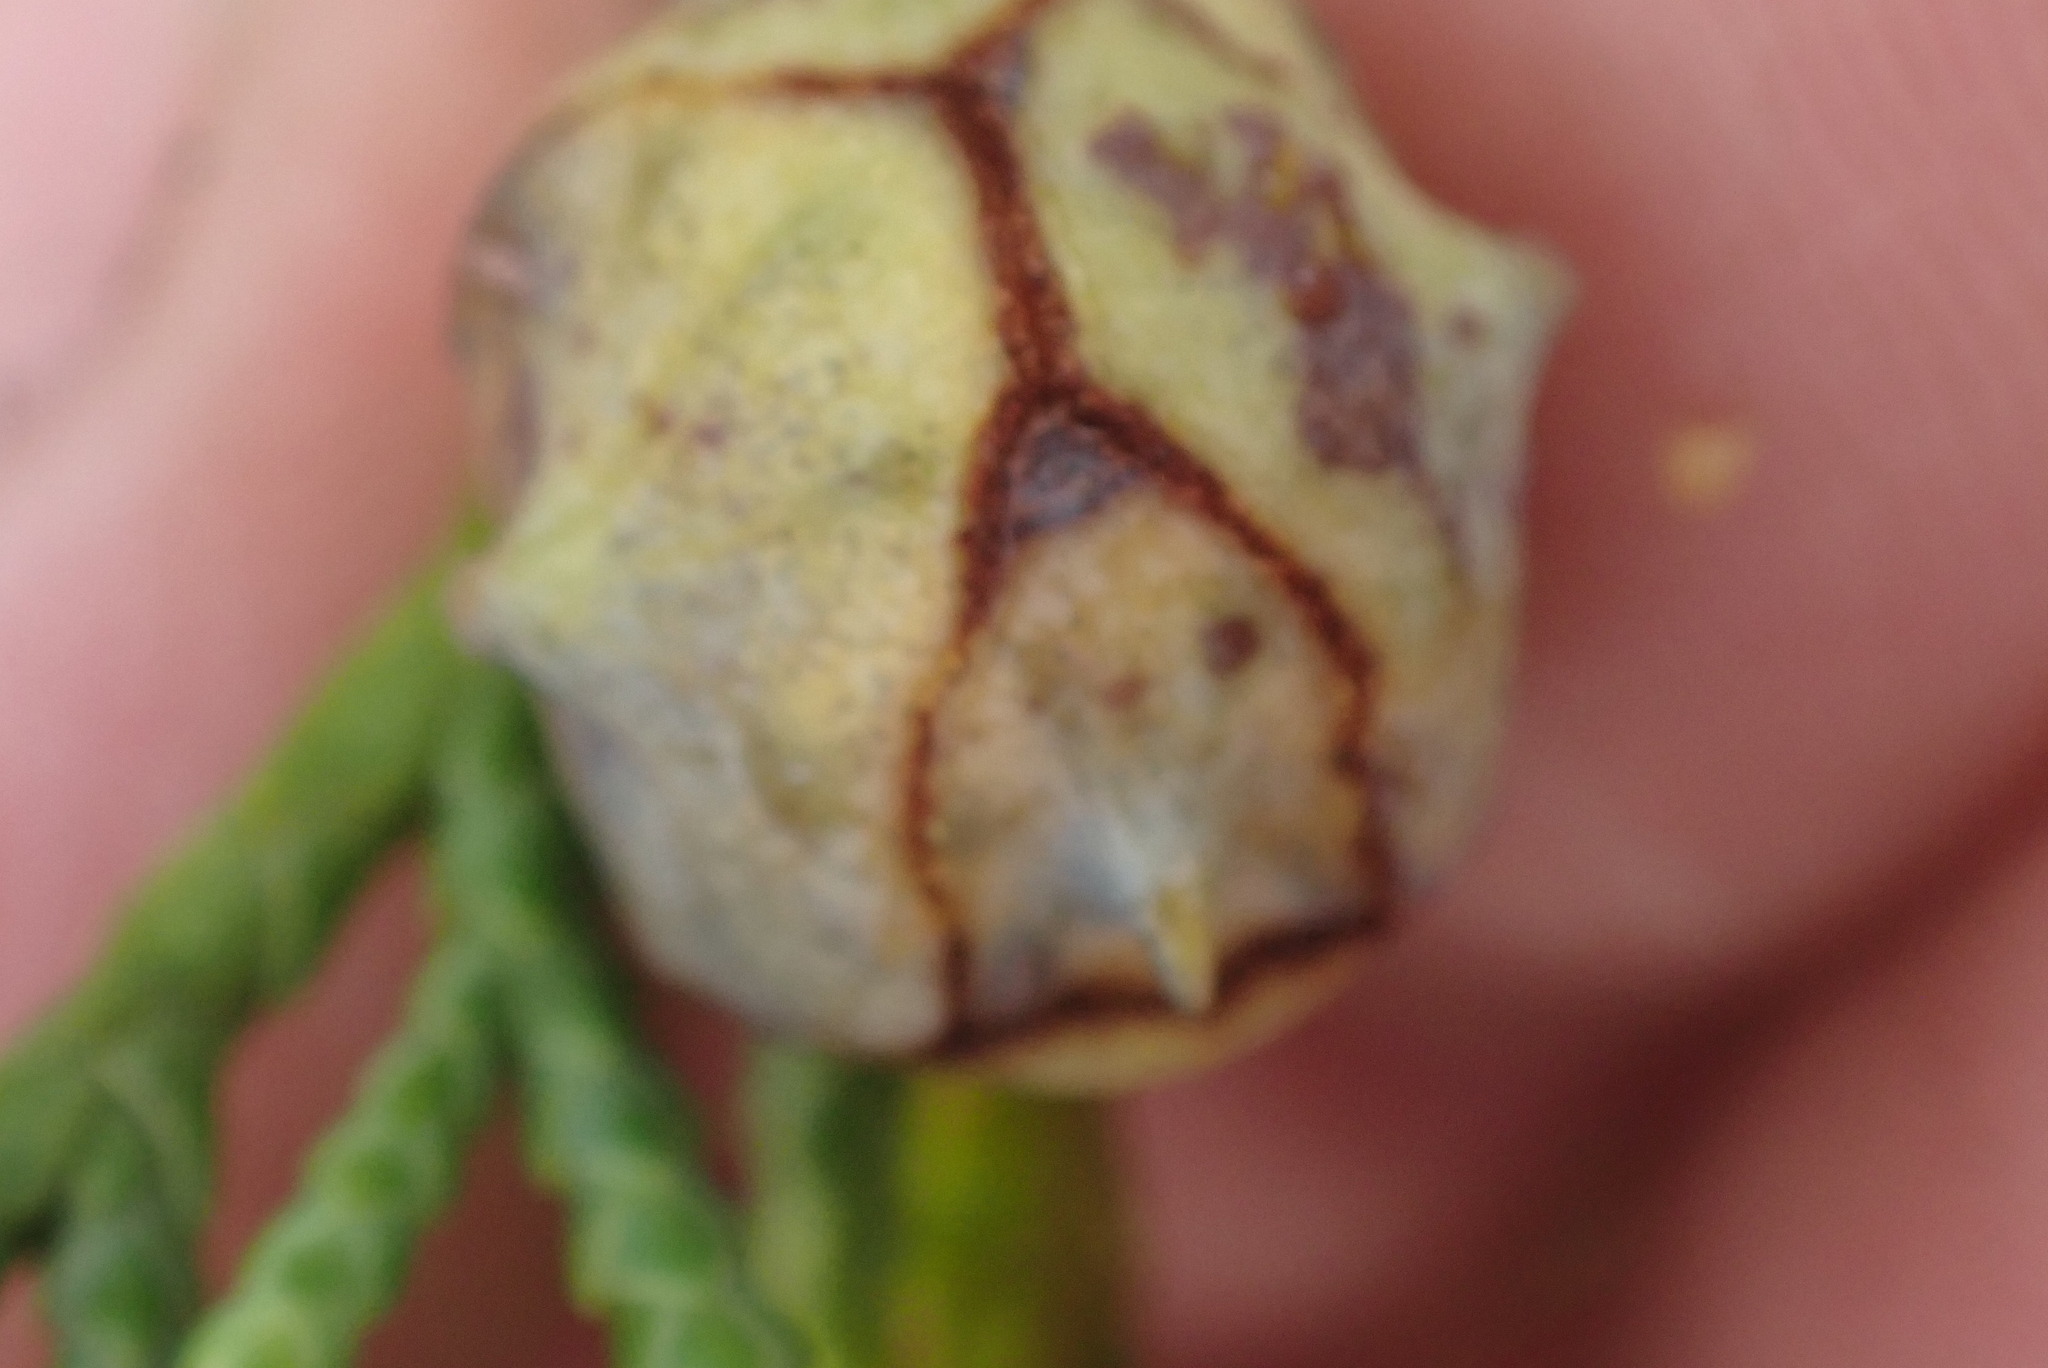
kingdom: Plantae
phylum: Tracheophyta
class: Pinopsida
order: Pinales
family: Cupressaceae
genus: Xanthocyparis
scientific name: Xanthocyparis nootkatensis
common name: Nootka cypress
